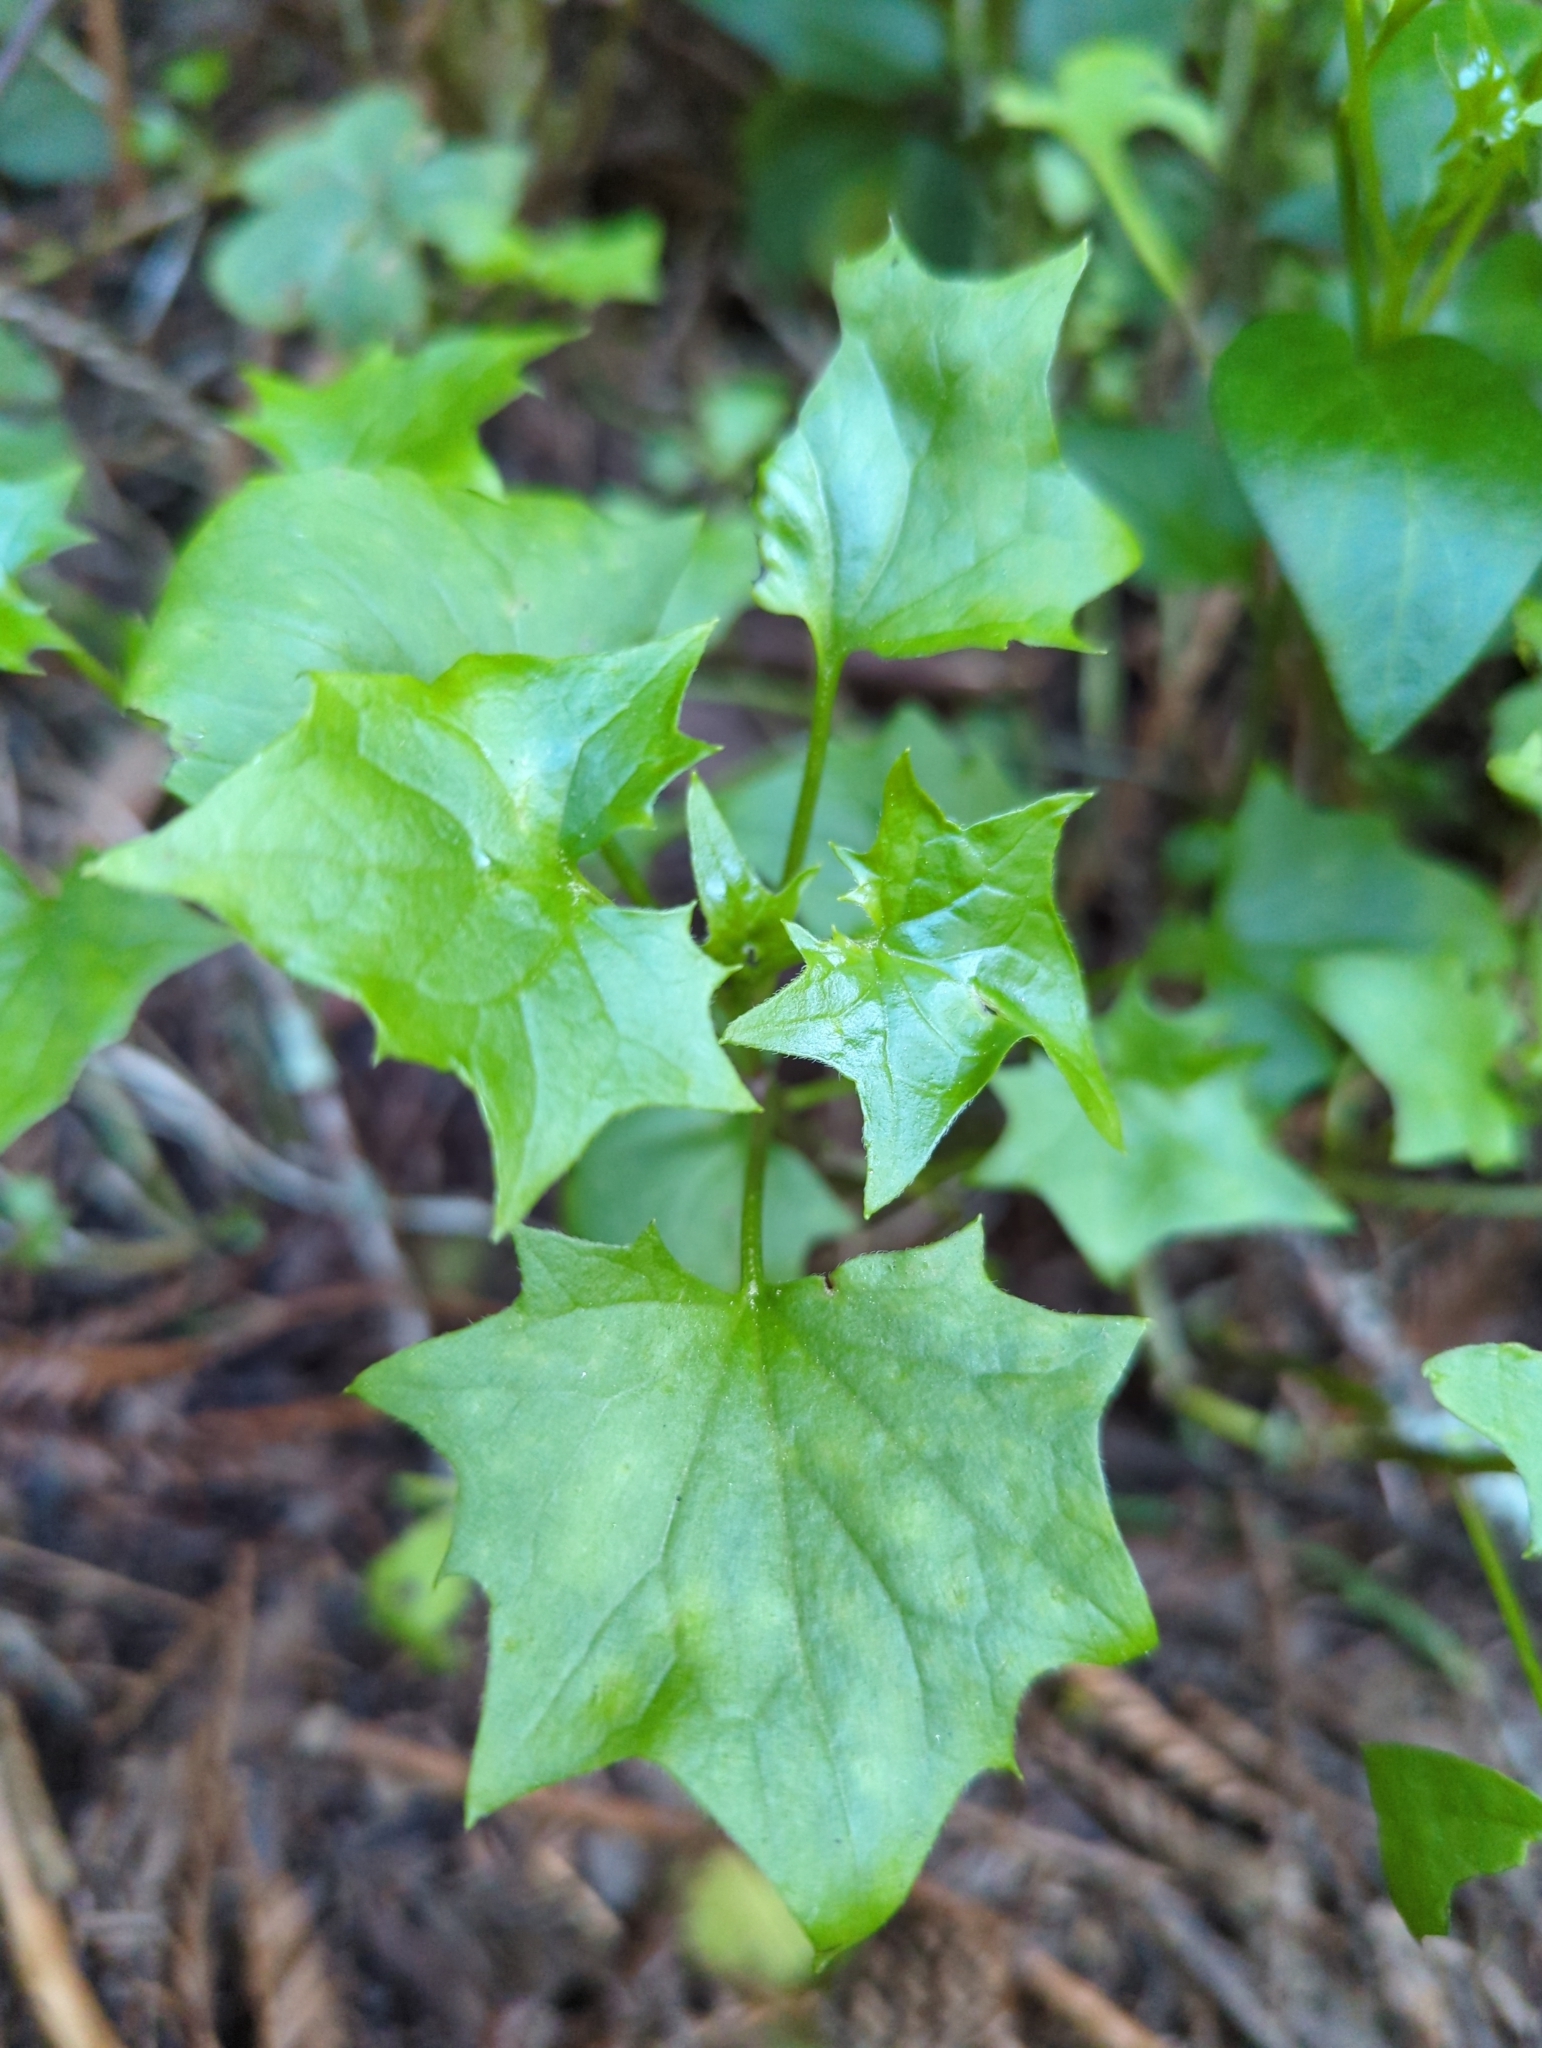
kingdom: Plantae
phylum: Tracheophyta
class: Magnoliopsida
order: Asterales
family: Asteraceae
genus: Delairea
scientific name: Delairea odorata
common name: Cape-ivy
